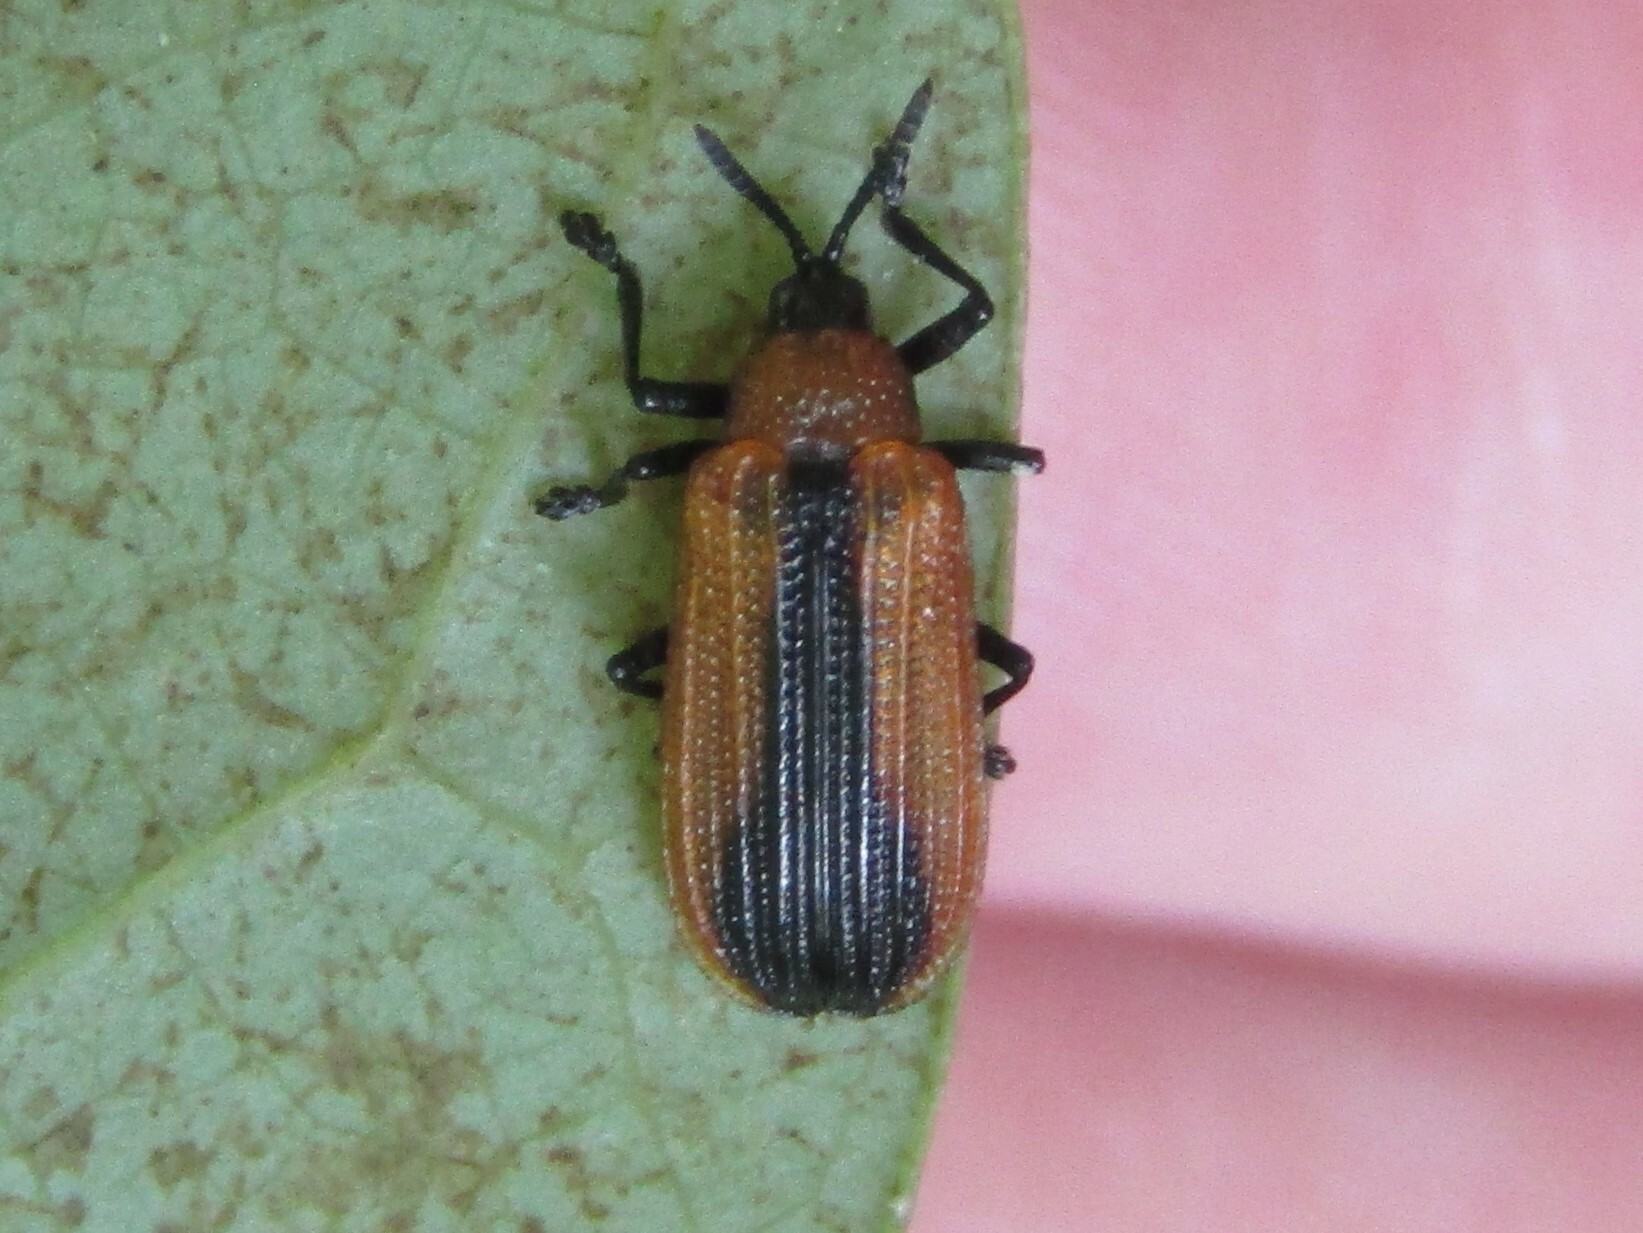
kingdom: Animalia
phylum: Arthropoda
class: Insecta
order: Coleoptera
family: Chrysomelidae
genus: Odontota
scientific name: Odontota dorsalis
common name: Locust leaf-miner beetle
